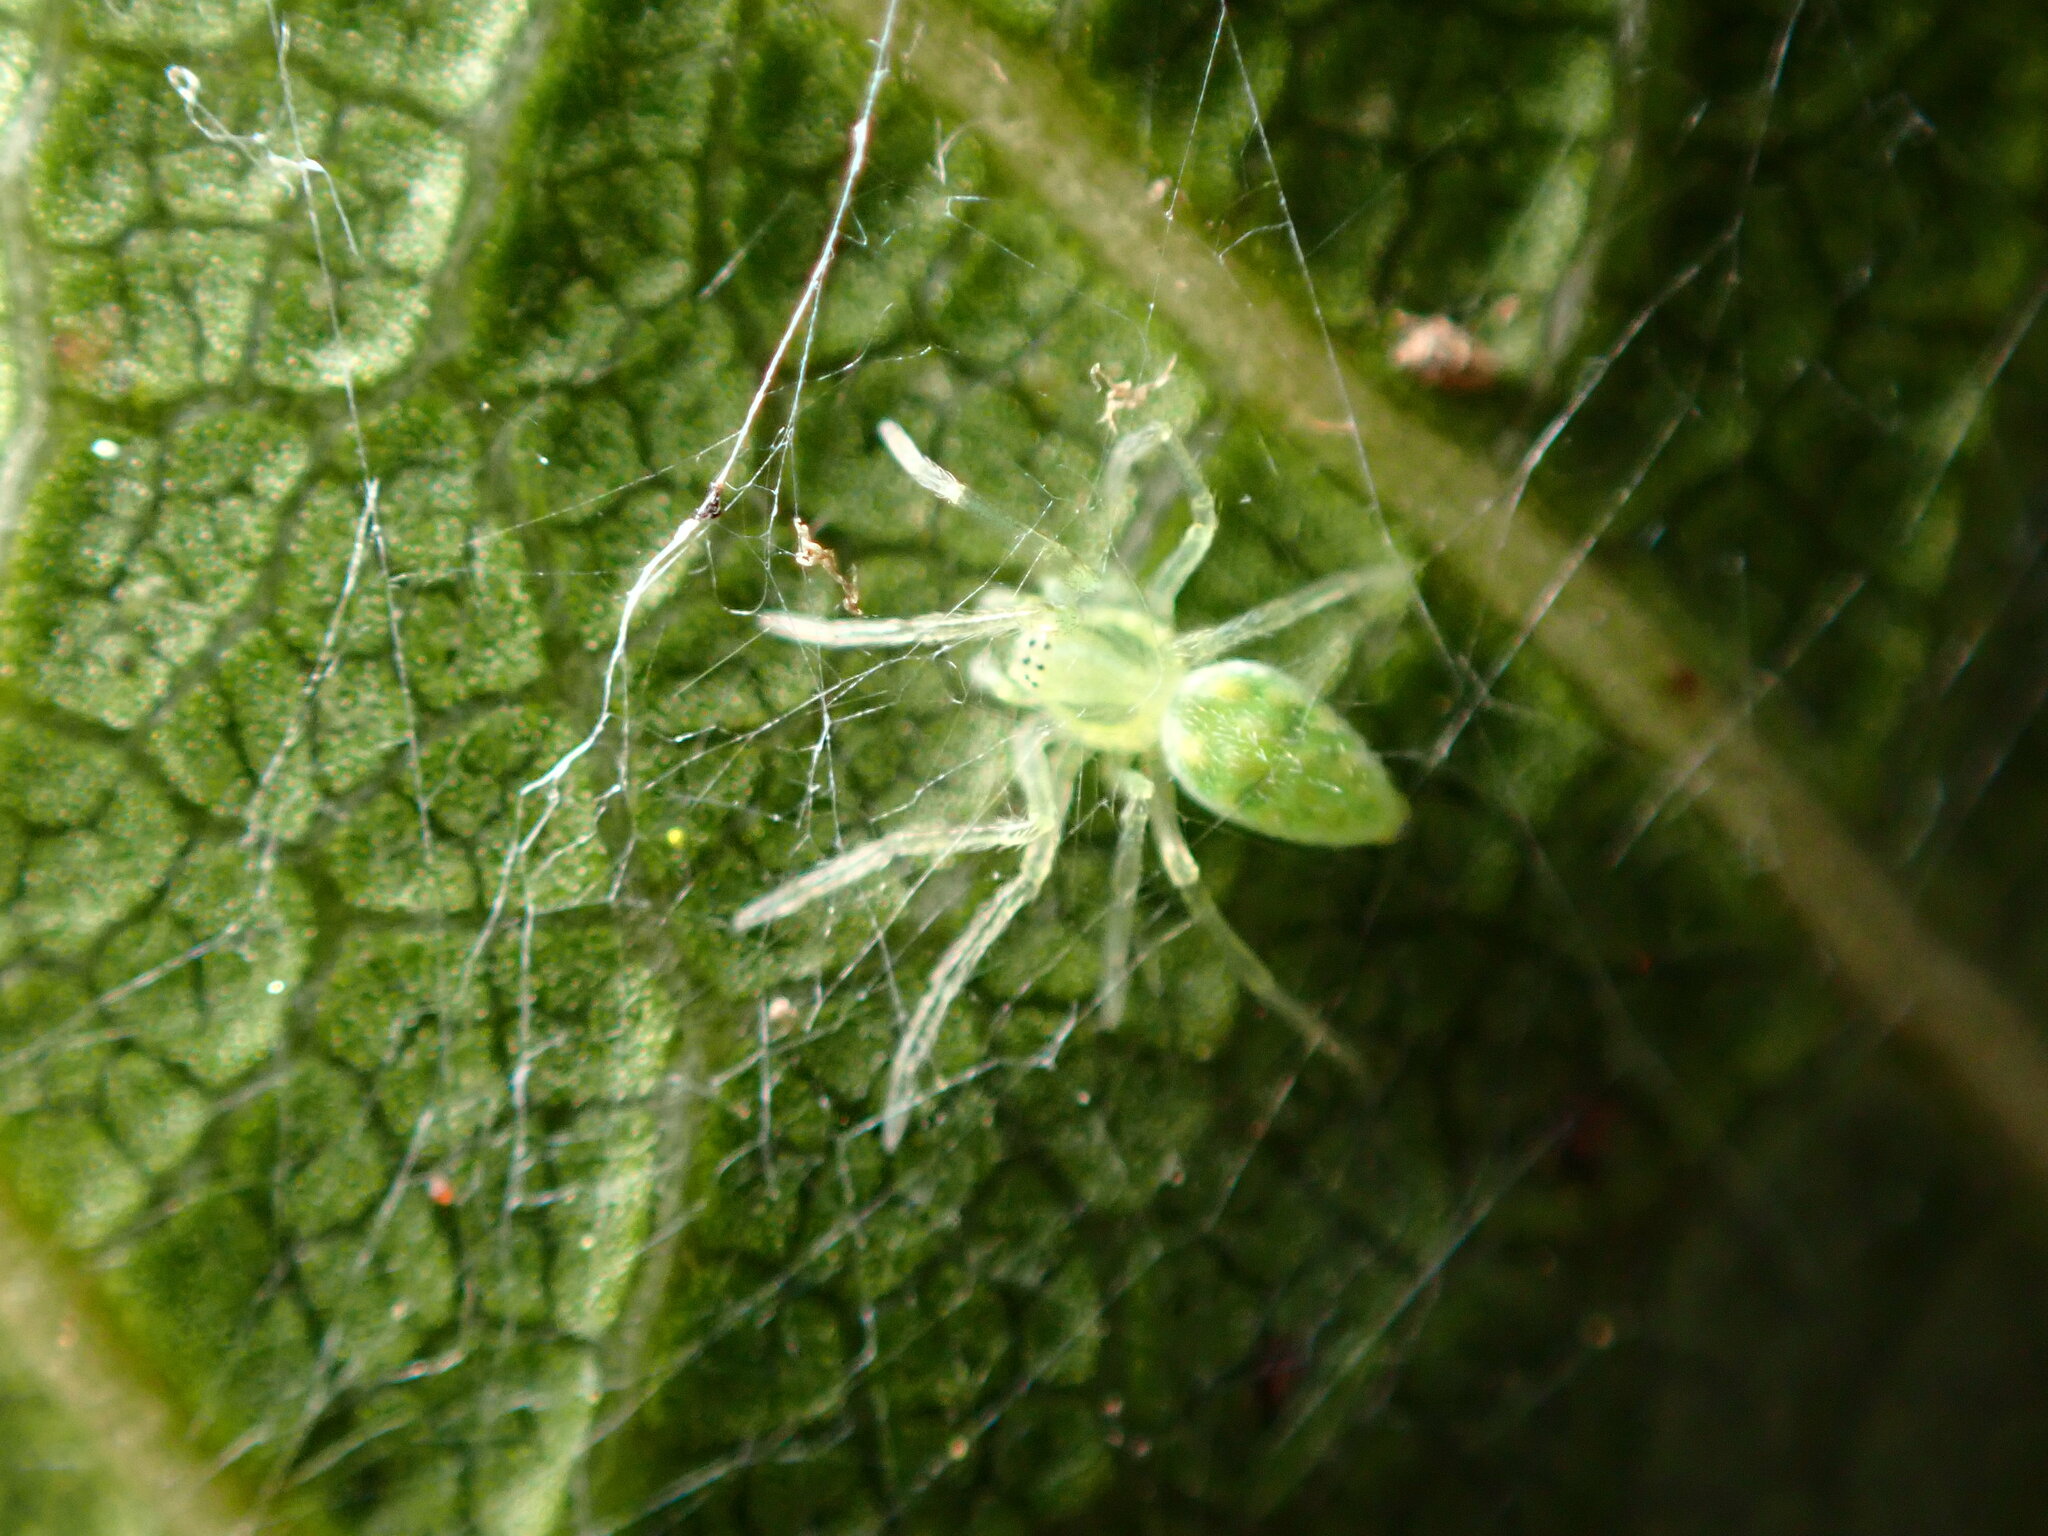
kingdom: Animalia
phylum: Arthropoda
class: Arachnida
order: Araneae
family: Dictynidae
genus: Nigma
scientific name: Nigma linsdalei
